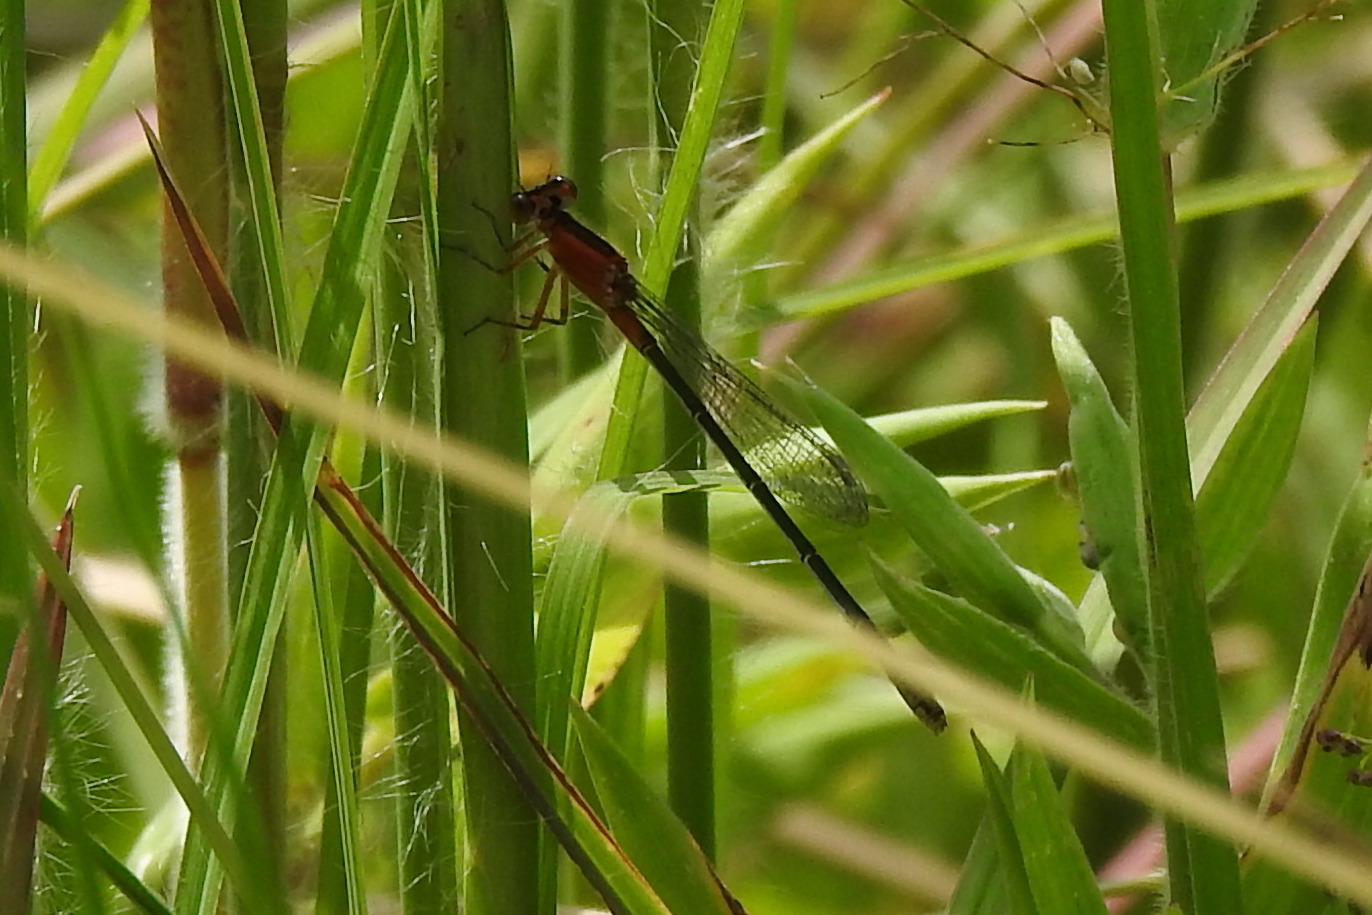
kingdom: Animalia
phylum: Arthropoda
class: Insecta
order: Odonata
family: Coenagrionidae
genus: Ischnura
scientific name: Ischnura ramburii
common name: Rambur's forktail
